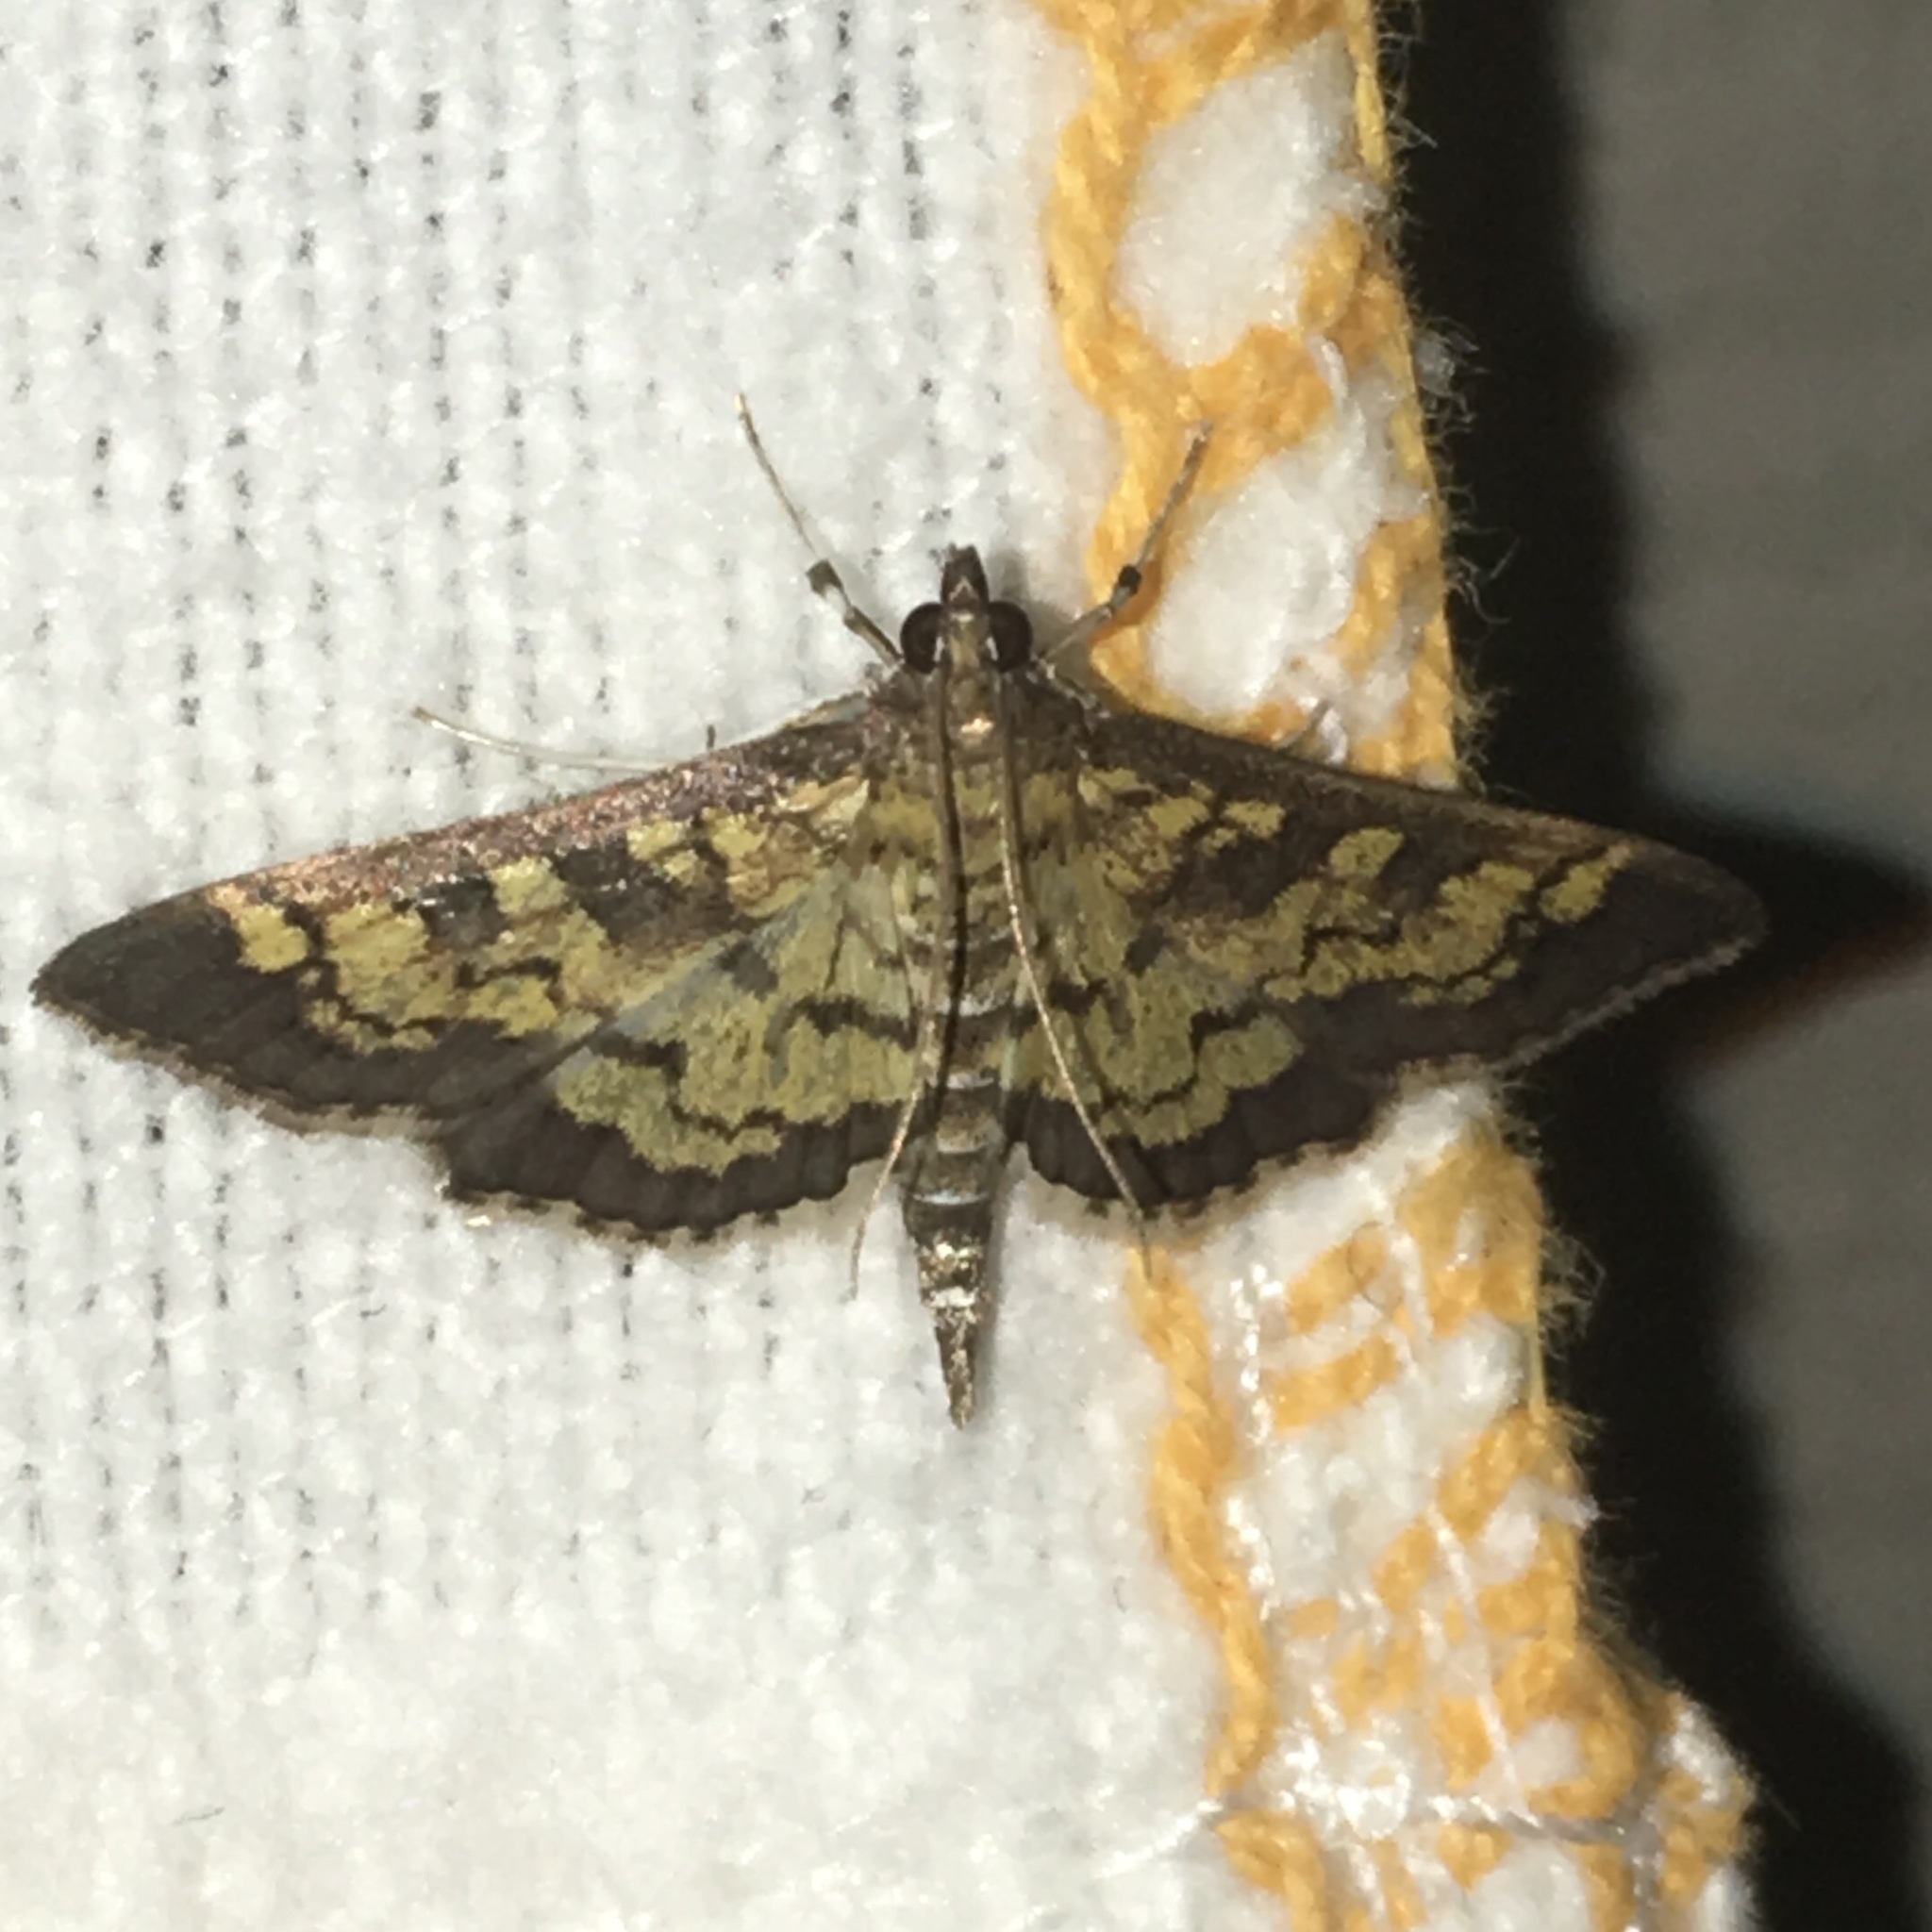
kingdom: Animalia
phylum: Arthropoda
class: Insecta
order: Lepidoptera
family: Crambidae
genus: Epipagis
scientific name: Epipagis adipaloides
